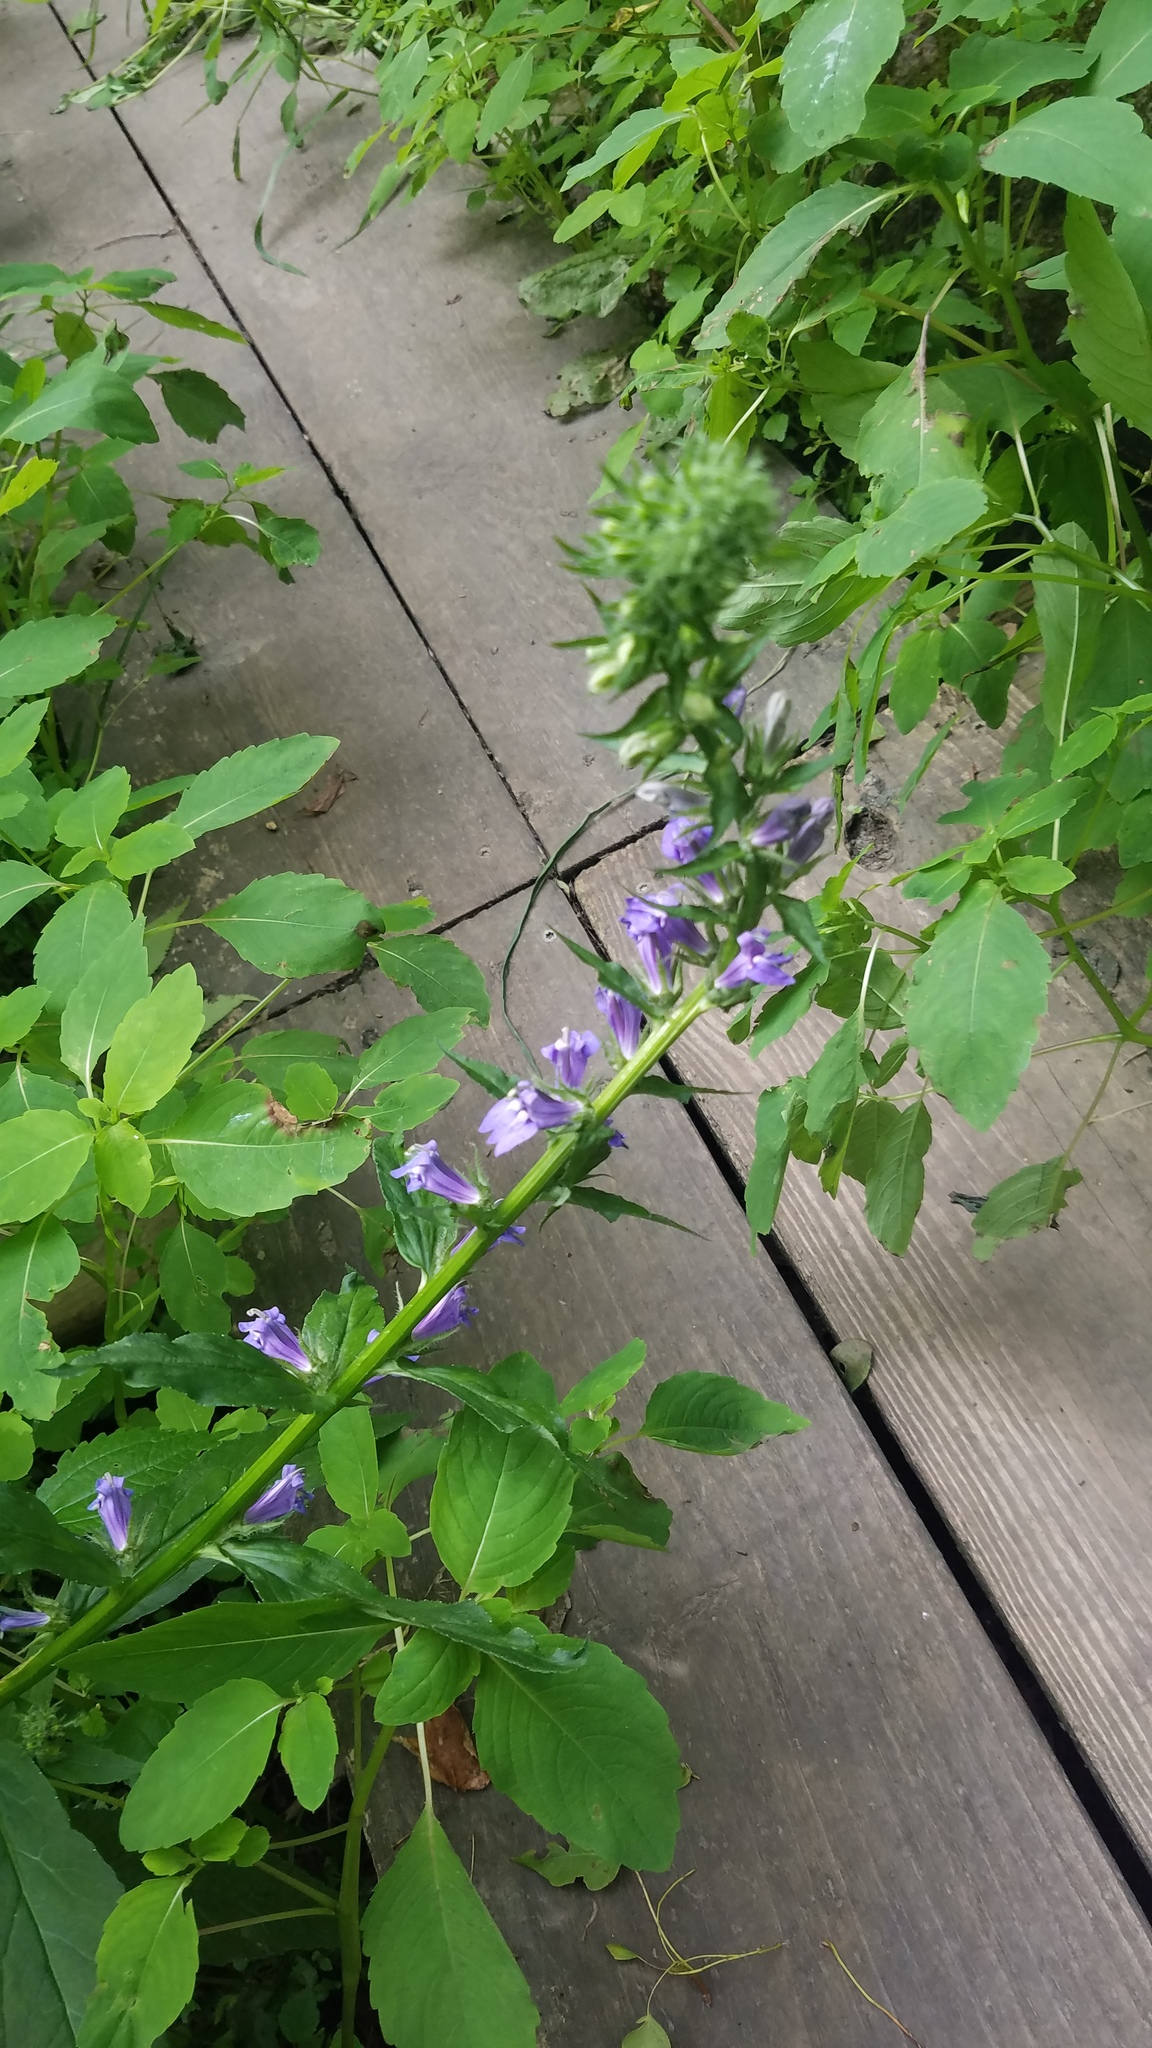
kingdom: Plantae
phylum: Tracheophyta
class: Magnoliopsida
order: Asterales
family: Campanulaceae
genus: Lobelia
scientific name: Lobelia siphilitica
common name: Great lobelia
